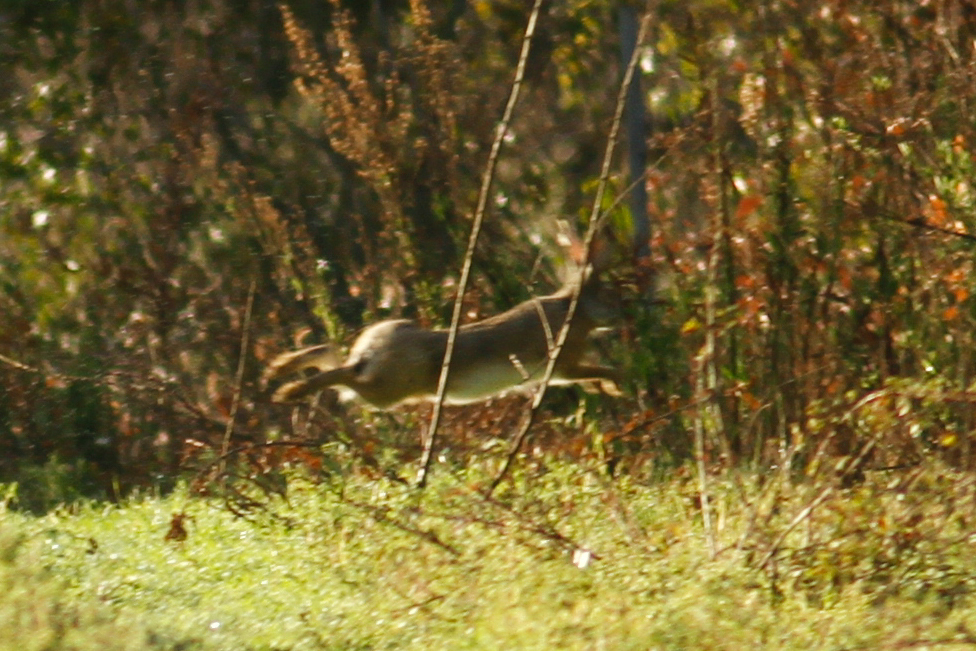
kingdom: Animalia
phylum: Chordata
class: Mammalia
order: Lagomorpha
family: Leporidae
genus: Lepus
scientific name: Lepus corsicanus
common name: Corsican hare
